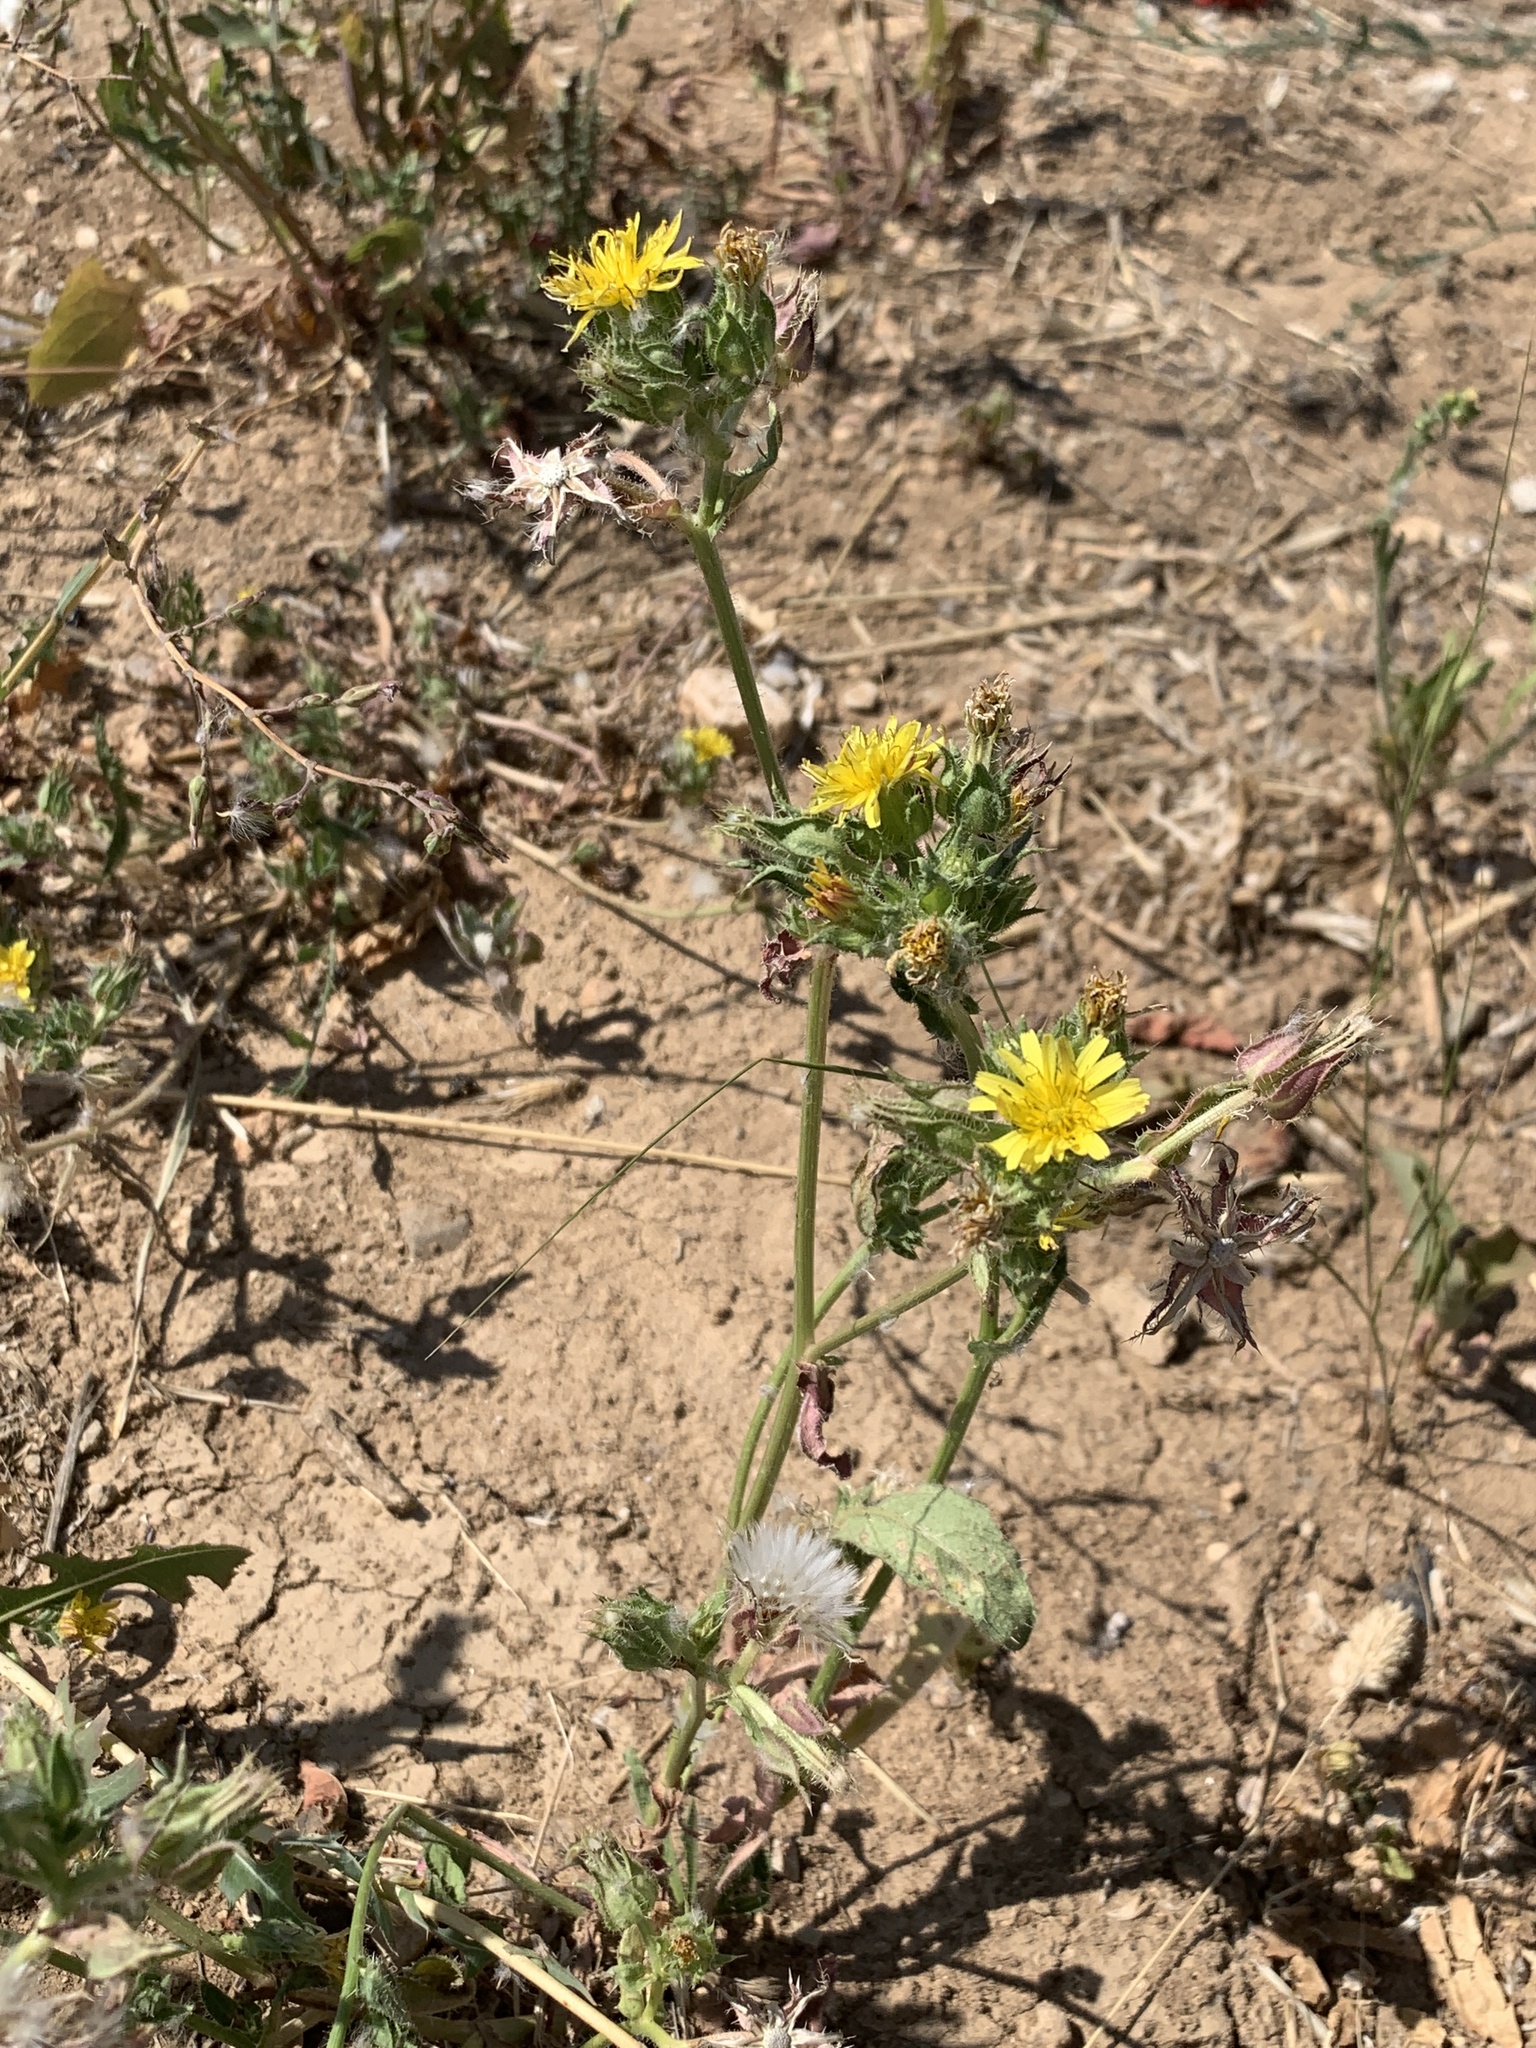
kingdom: Plantae
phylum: Tracheophyta
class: Magnoliopsida
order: Asterales
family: Asteraceae
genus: Helminthotheca
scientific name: Helminthotheca echioides
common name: Ox-tongue
